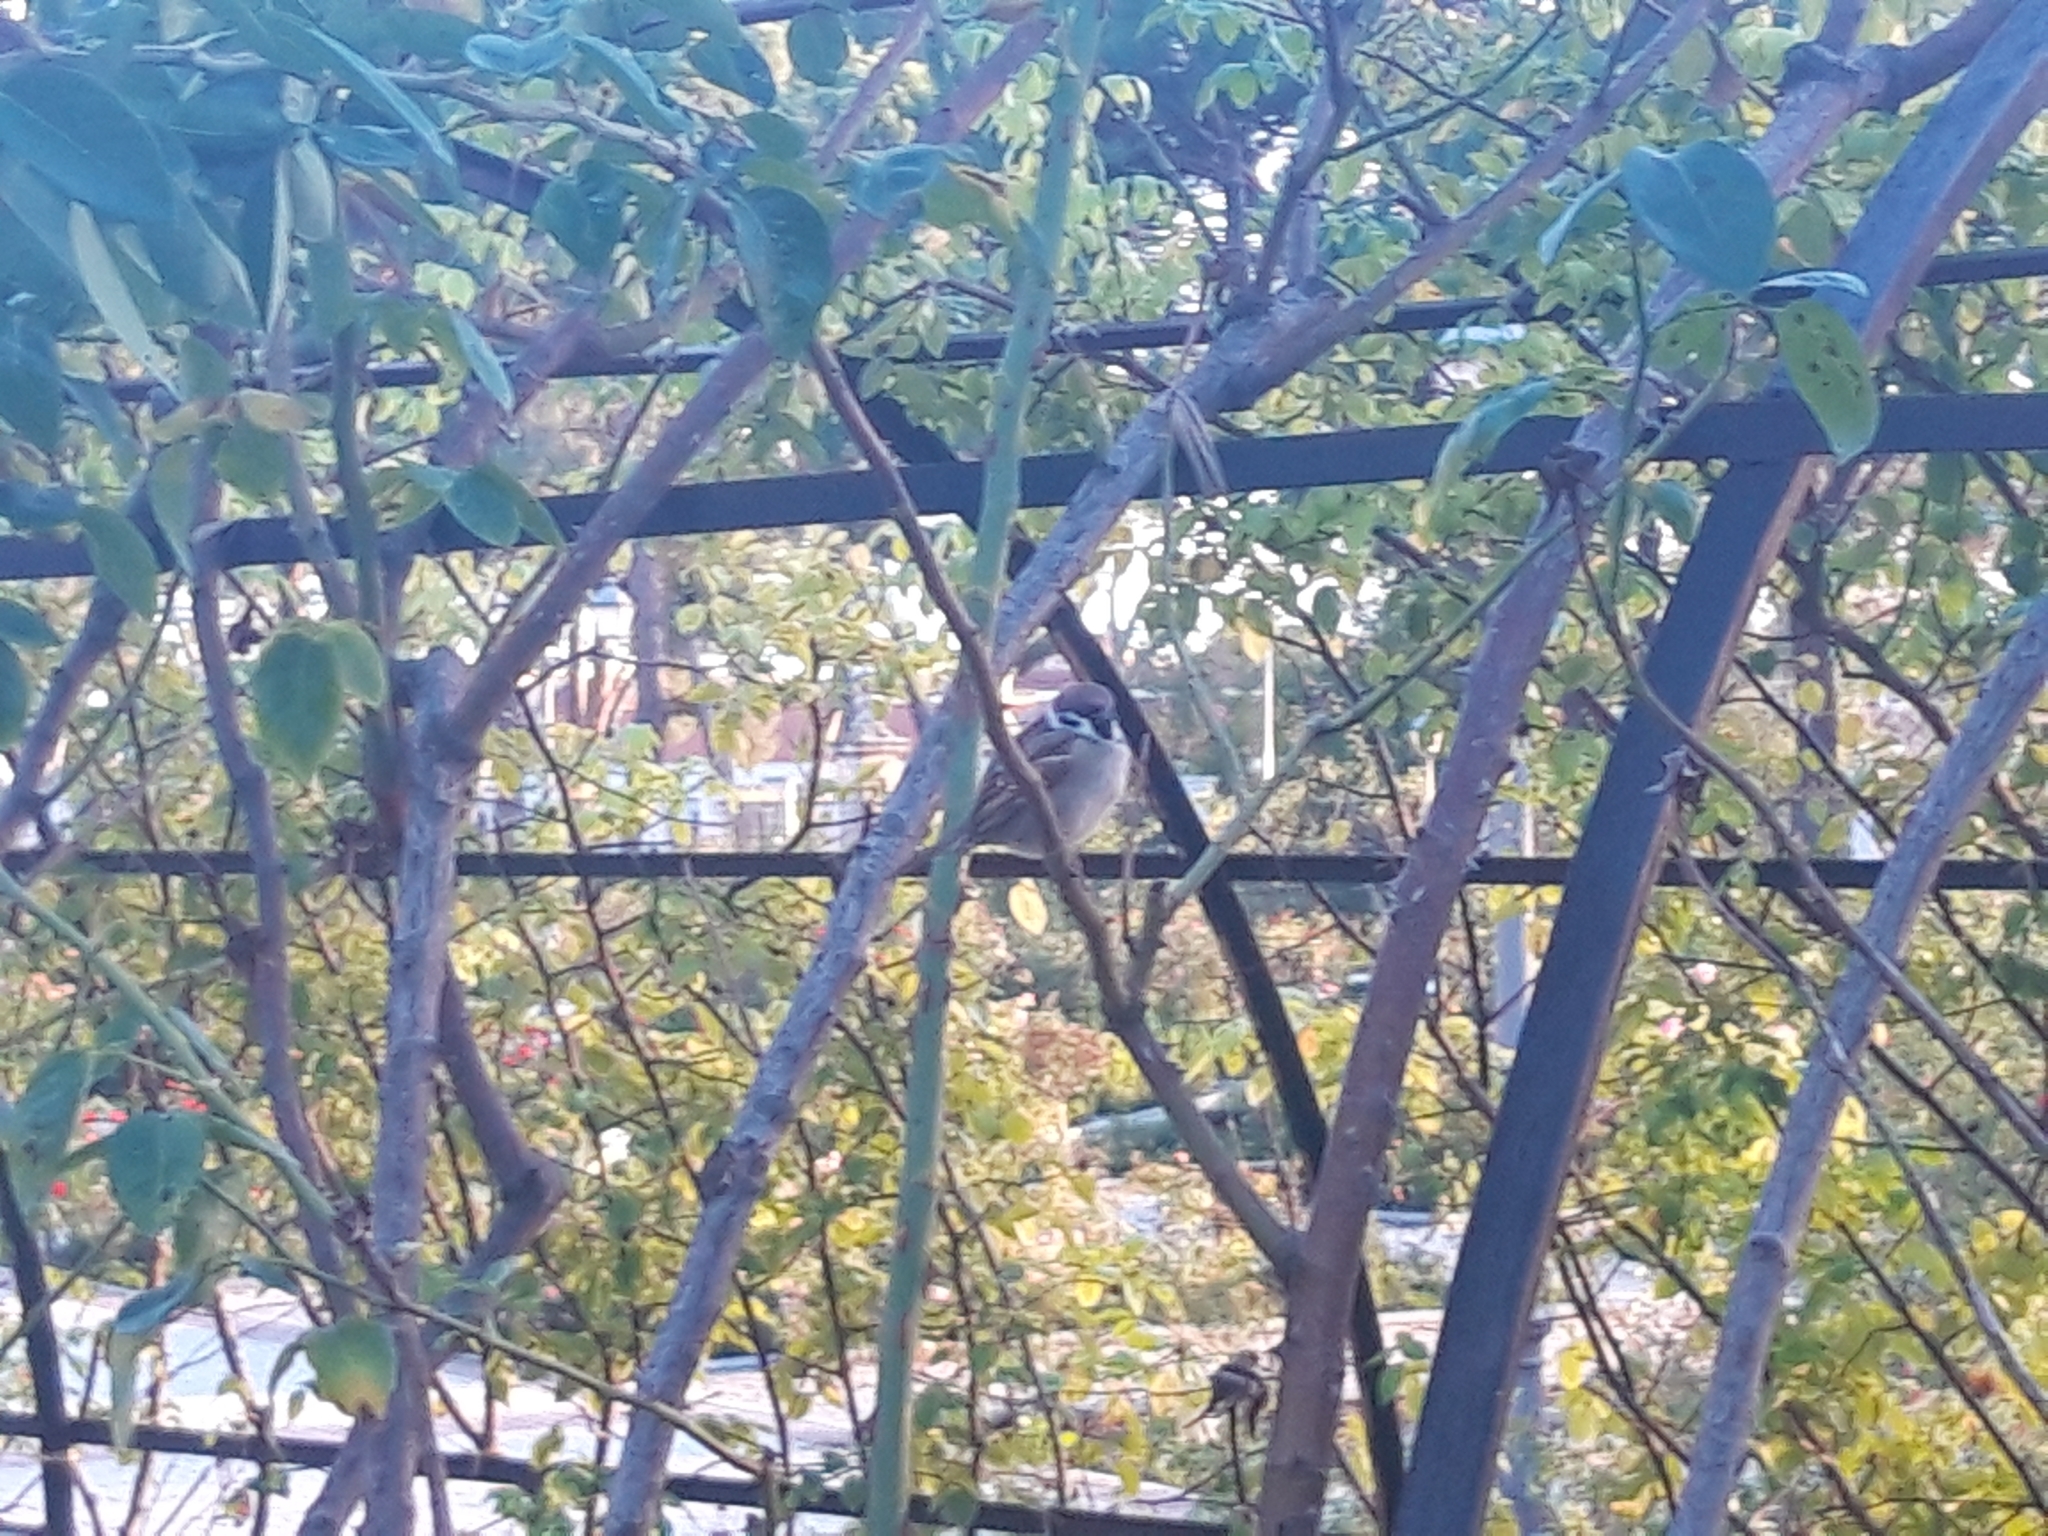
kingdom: Animalia
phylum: Chordata
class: Aves
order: Passeriformes
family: Passeridae
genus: Passer
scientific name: Passer montanus
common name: Eurasian tree sparrow
